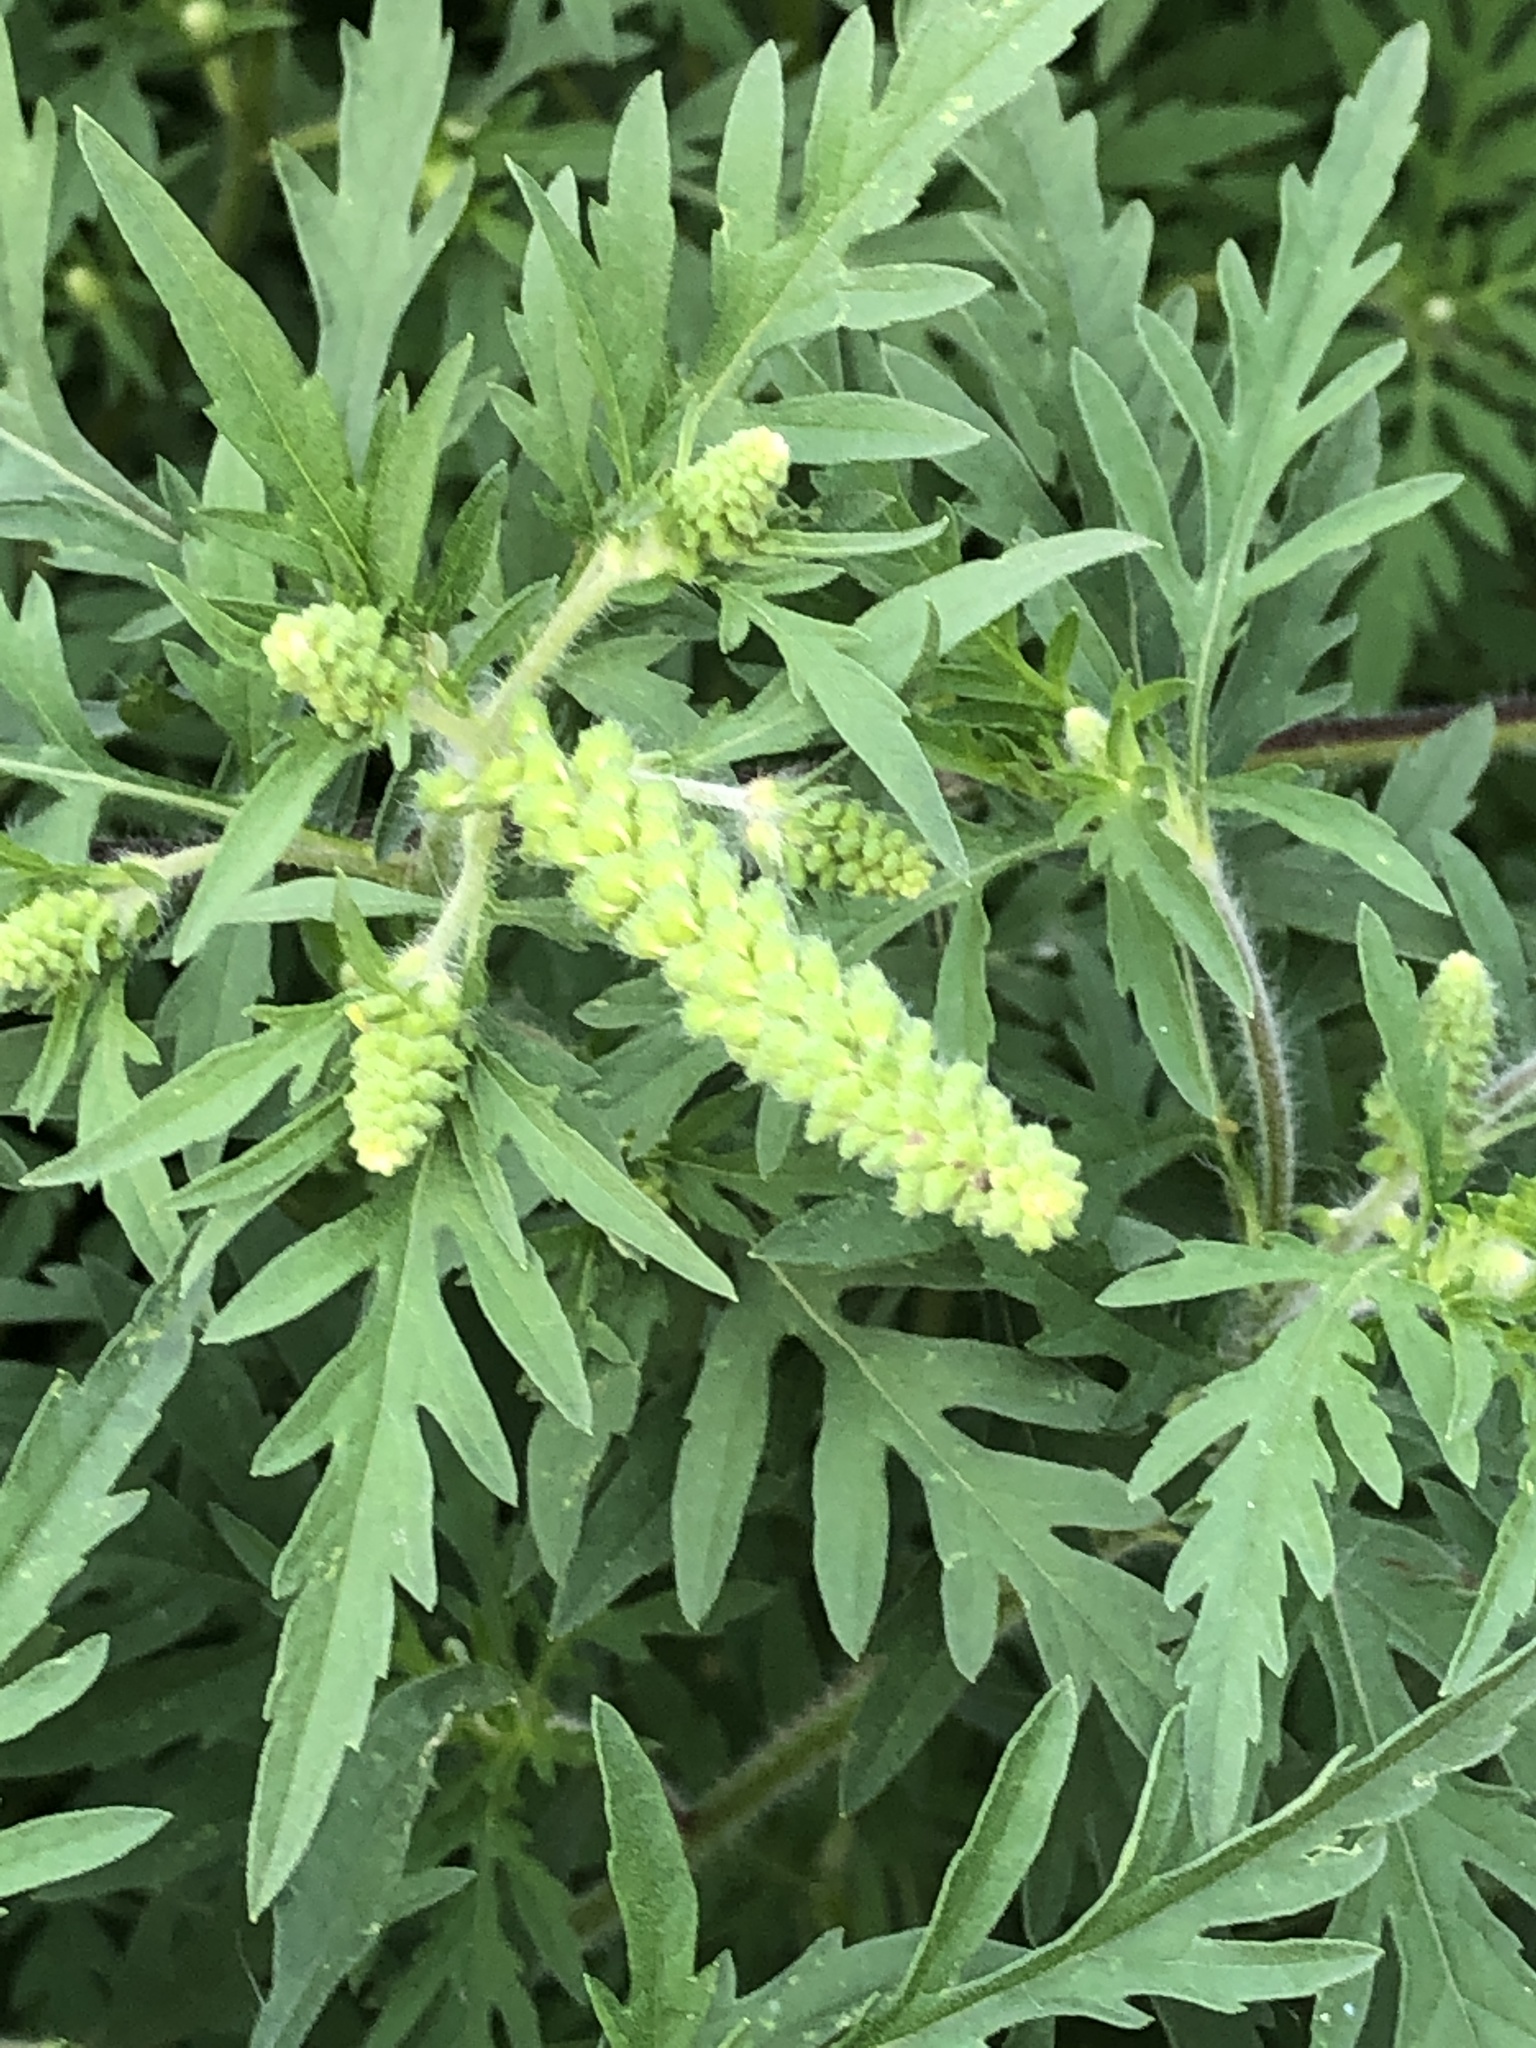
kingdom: Plantae
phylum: Tracheophyta
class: Magnoliopsida
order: Asterales
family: Asteraceae
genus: Ambrosia
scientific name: Ambrosia artemisiifolia
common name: Annual ragweed
